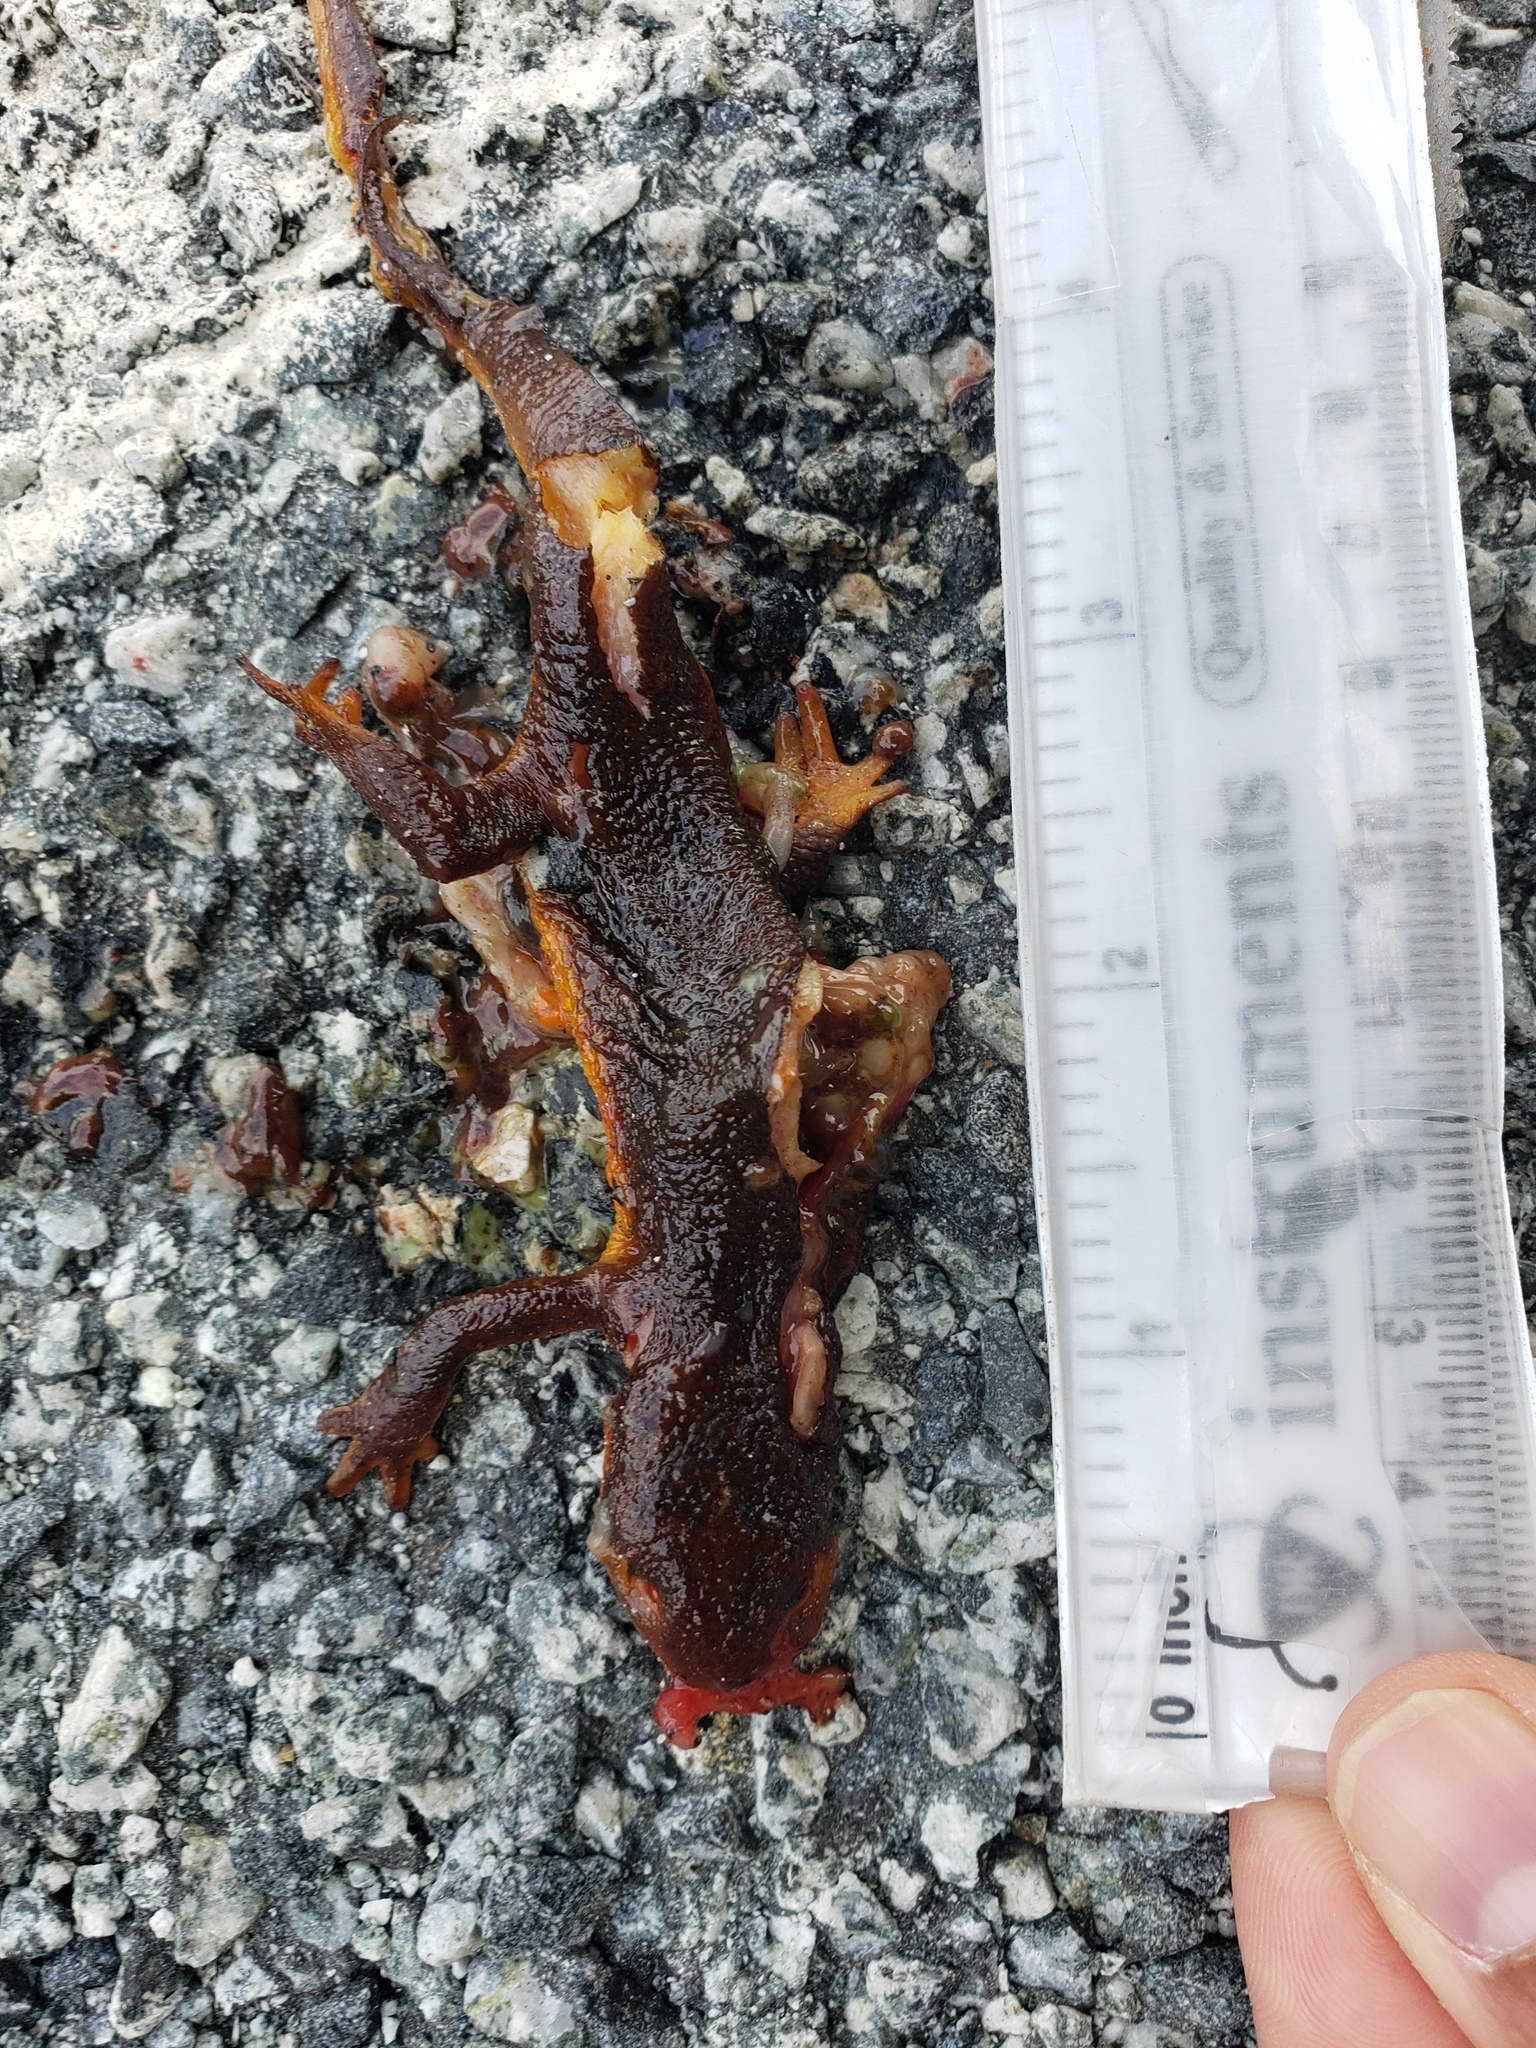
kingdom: Animalia
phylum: Chordata
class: Amphibia
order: Caudata
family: Salamandridae
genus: Taricha
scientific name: Taricha
